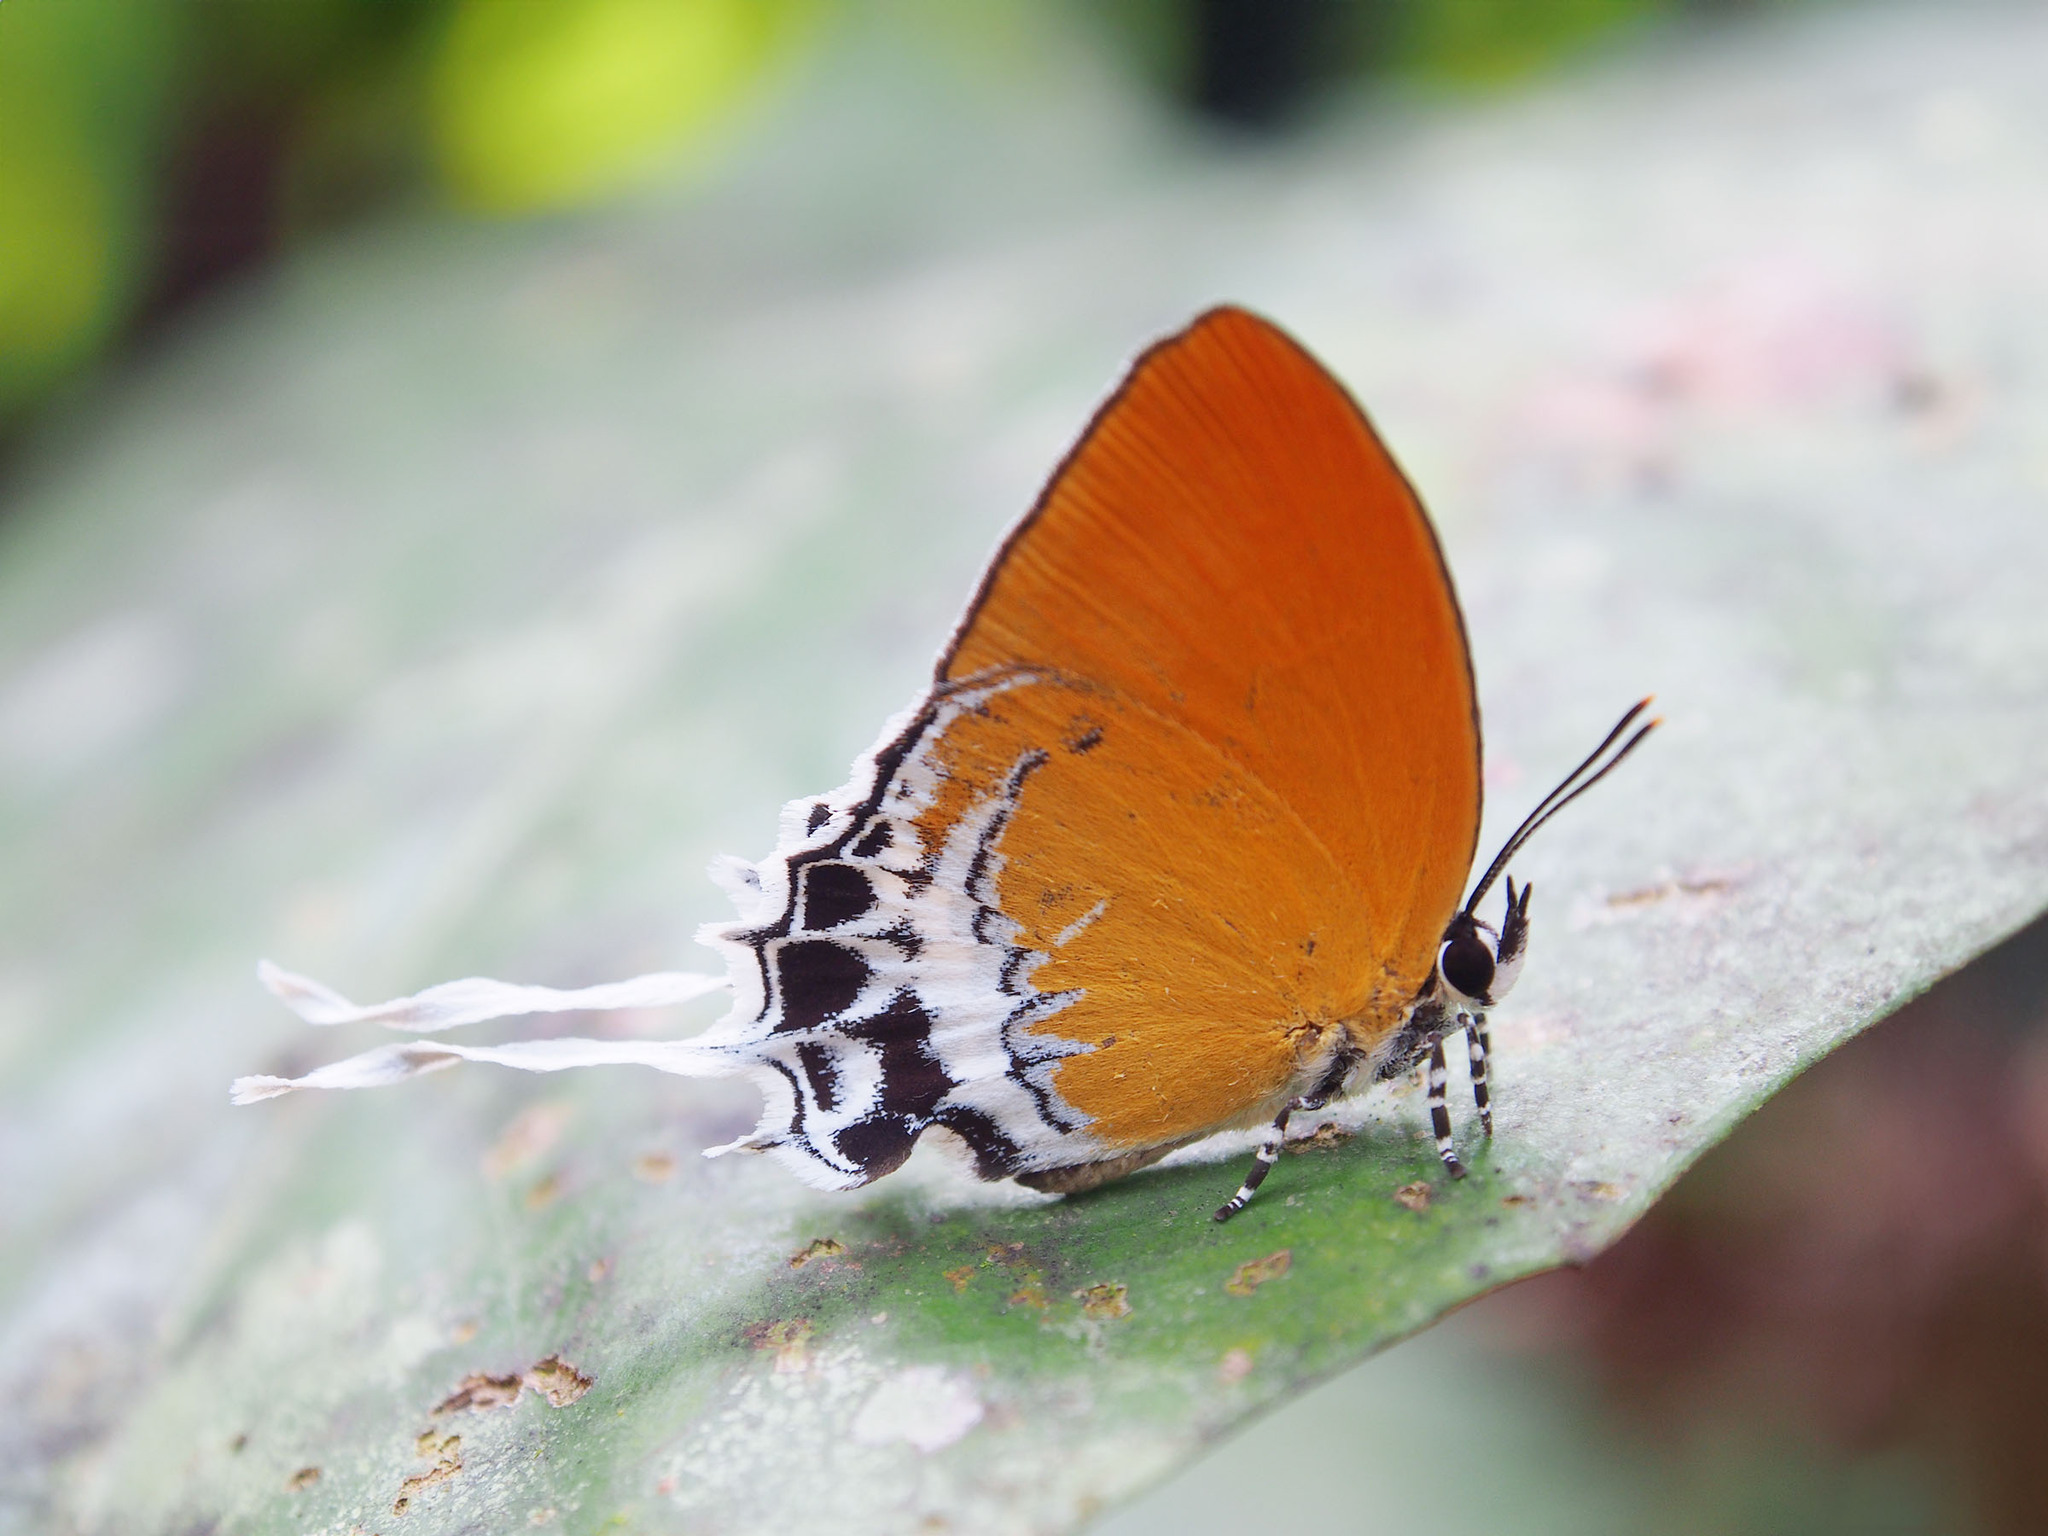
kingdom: Animalia
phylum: Arthropoda
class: Insecta
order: Lepidoptera
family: Lycaenidae
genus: Eooxylides
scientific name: Eooxylides tharis
